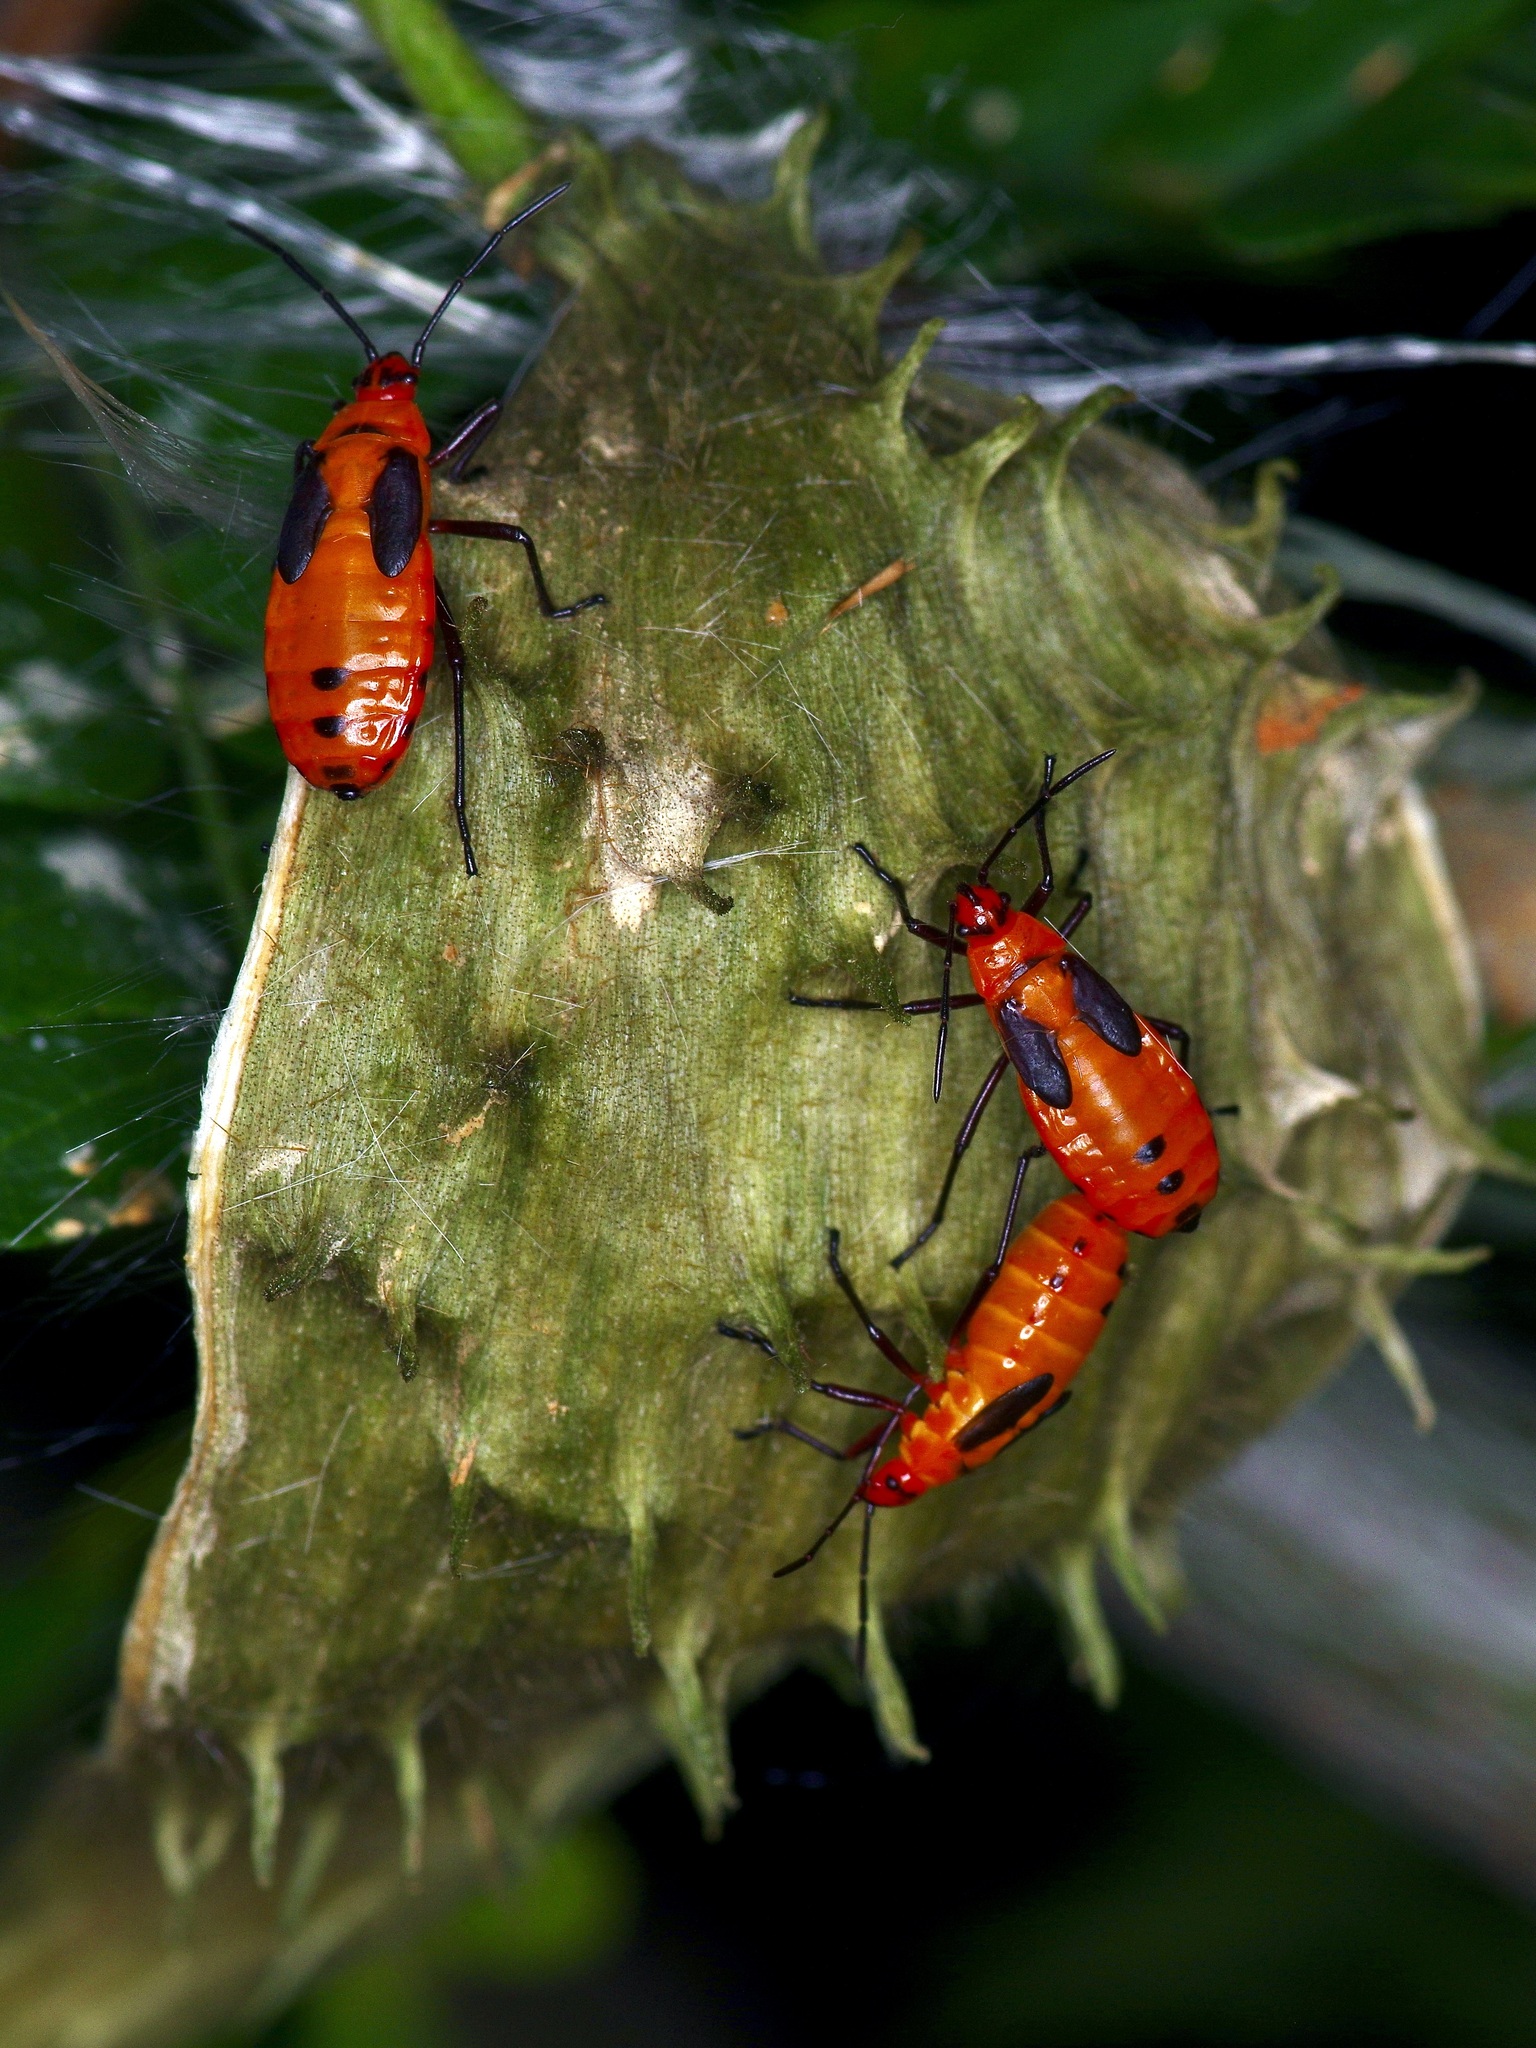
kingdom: Animalia
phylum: Arthropoda
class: Insecta
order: Hemiptera
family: Lygaeidae
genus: Oncopeltus
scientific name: Oncopeltus fasciatus
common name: Large milkweed bug
